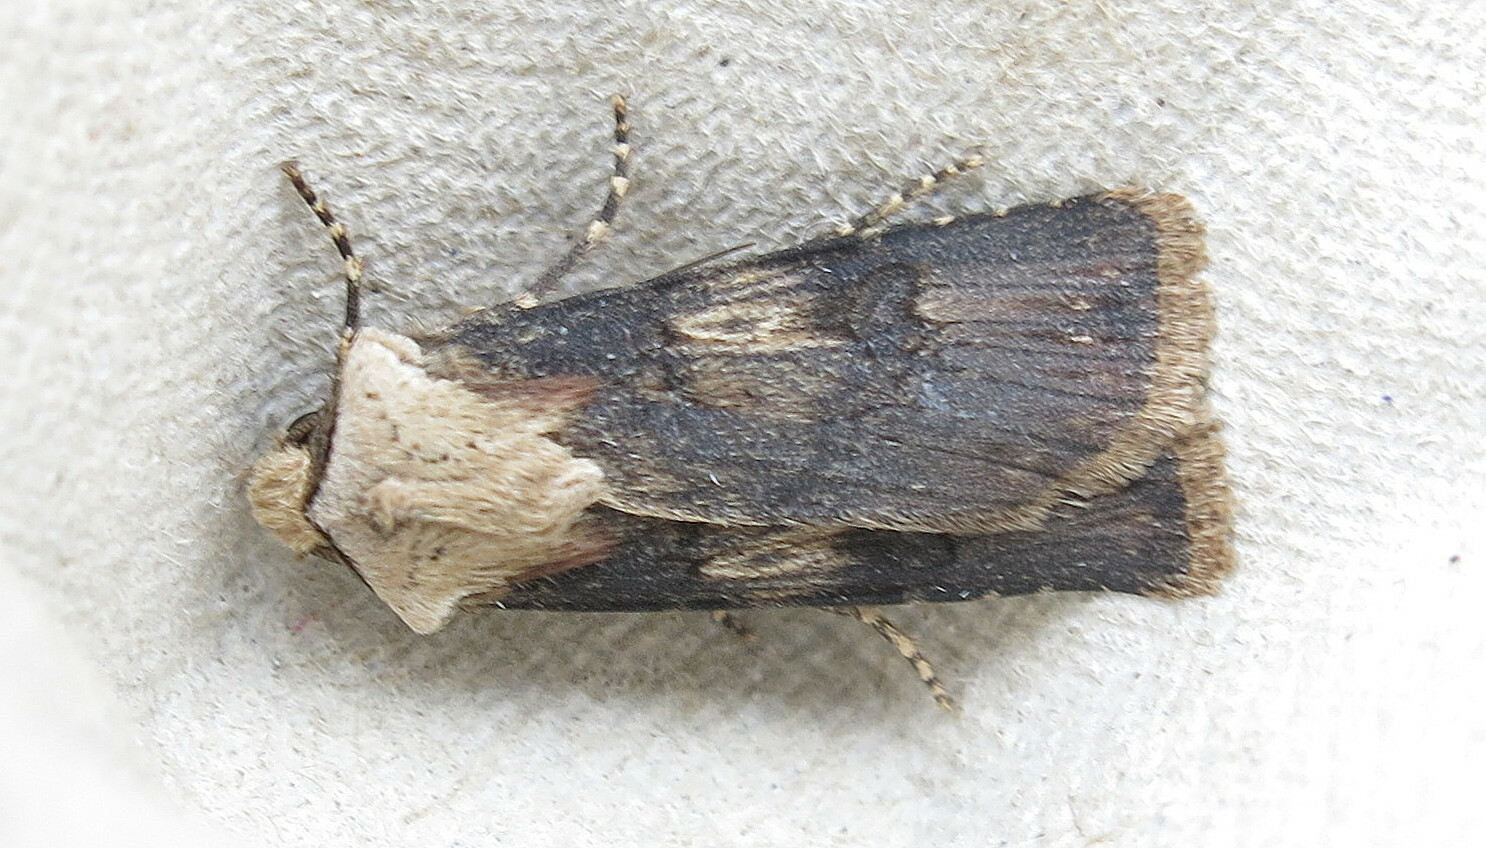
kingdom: Animalia
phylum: Arthropoda
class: Insecta
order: Lepidoptera
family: Noctuidae
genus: Agrotis
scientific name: Agrotis puta
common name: Shuttle-shaped dart
